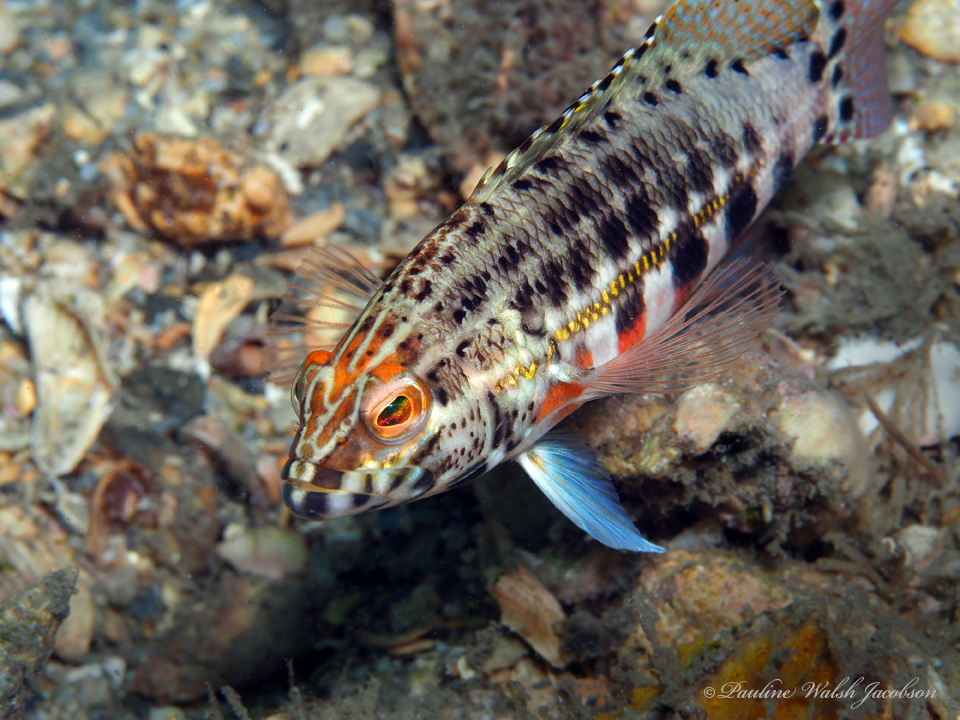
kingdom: Animalia
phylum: Chordata
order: Perciformes
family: Serranidae
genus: Serranus
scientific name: Serranus baldwini
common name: Lantern bass
